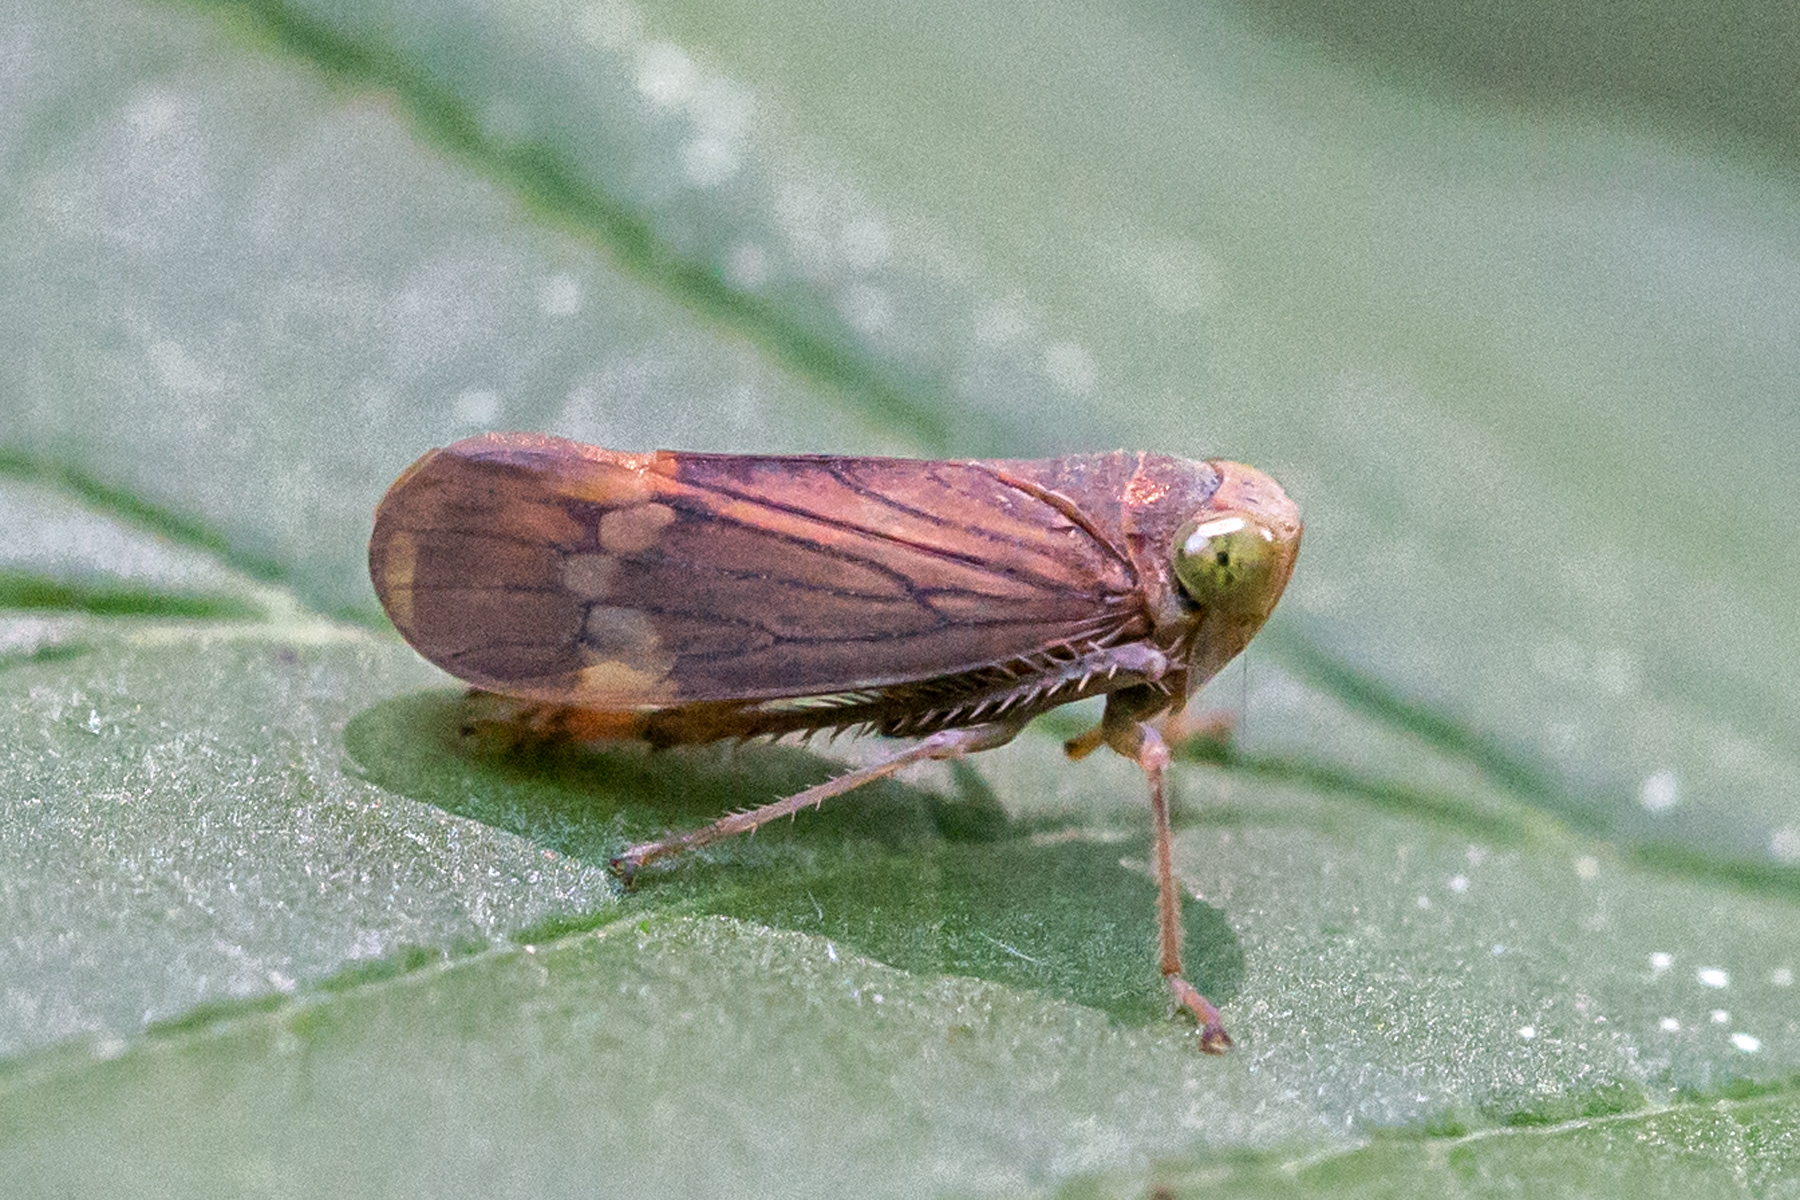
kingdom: Animalia
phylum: Arthropoda
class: Insecta
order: Hemiptera
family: Cicadellidae
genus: Jikradia
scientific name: Jikradia olitoria
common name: Coppery leafhopper
